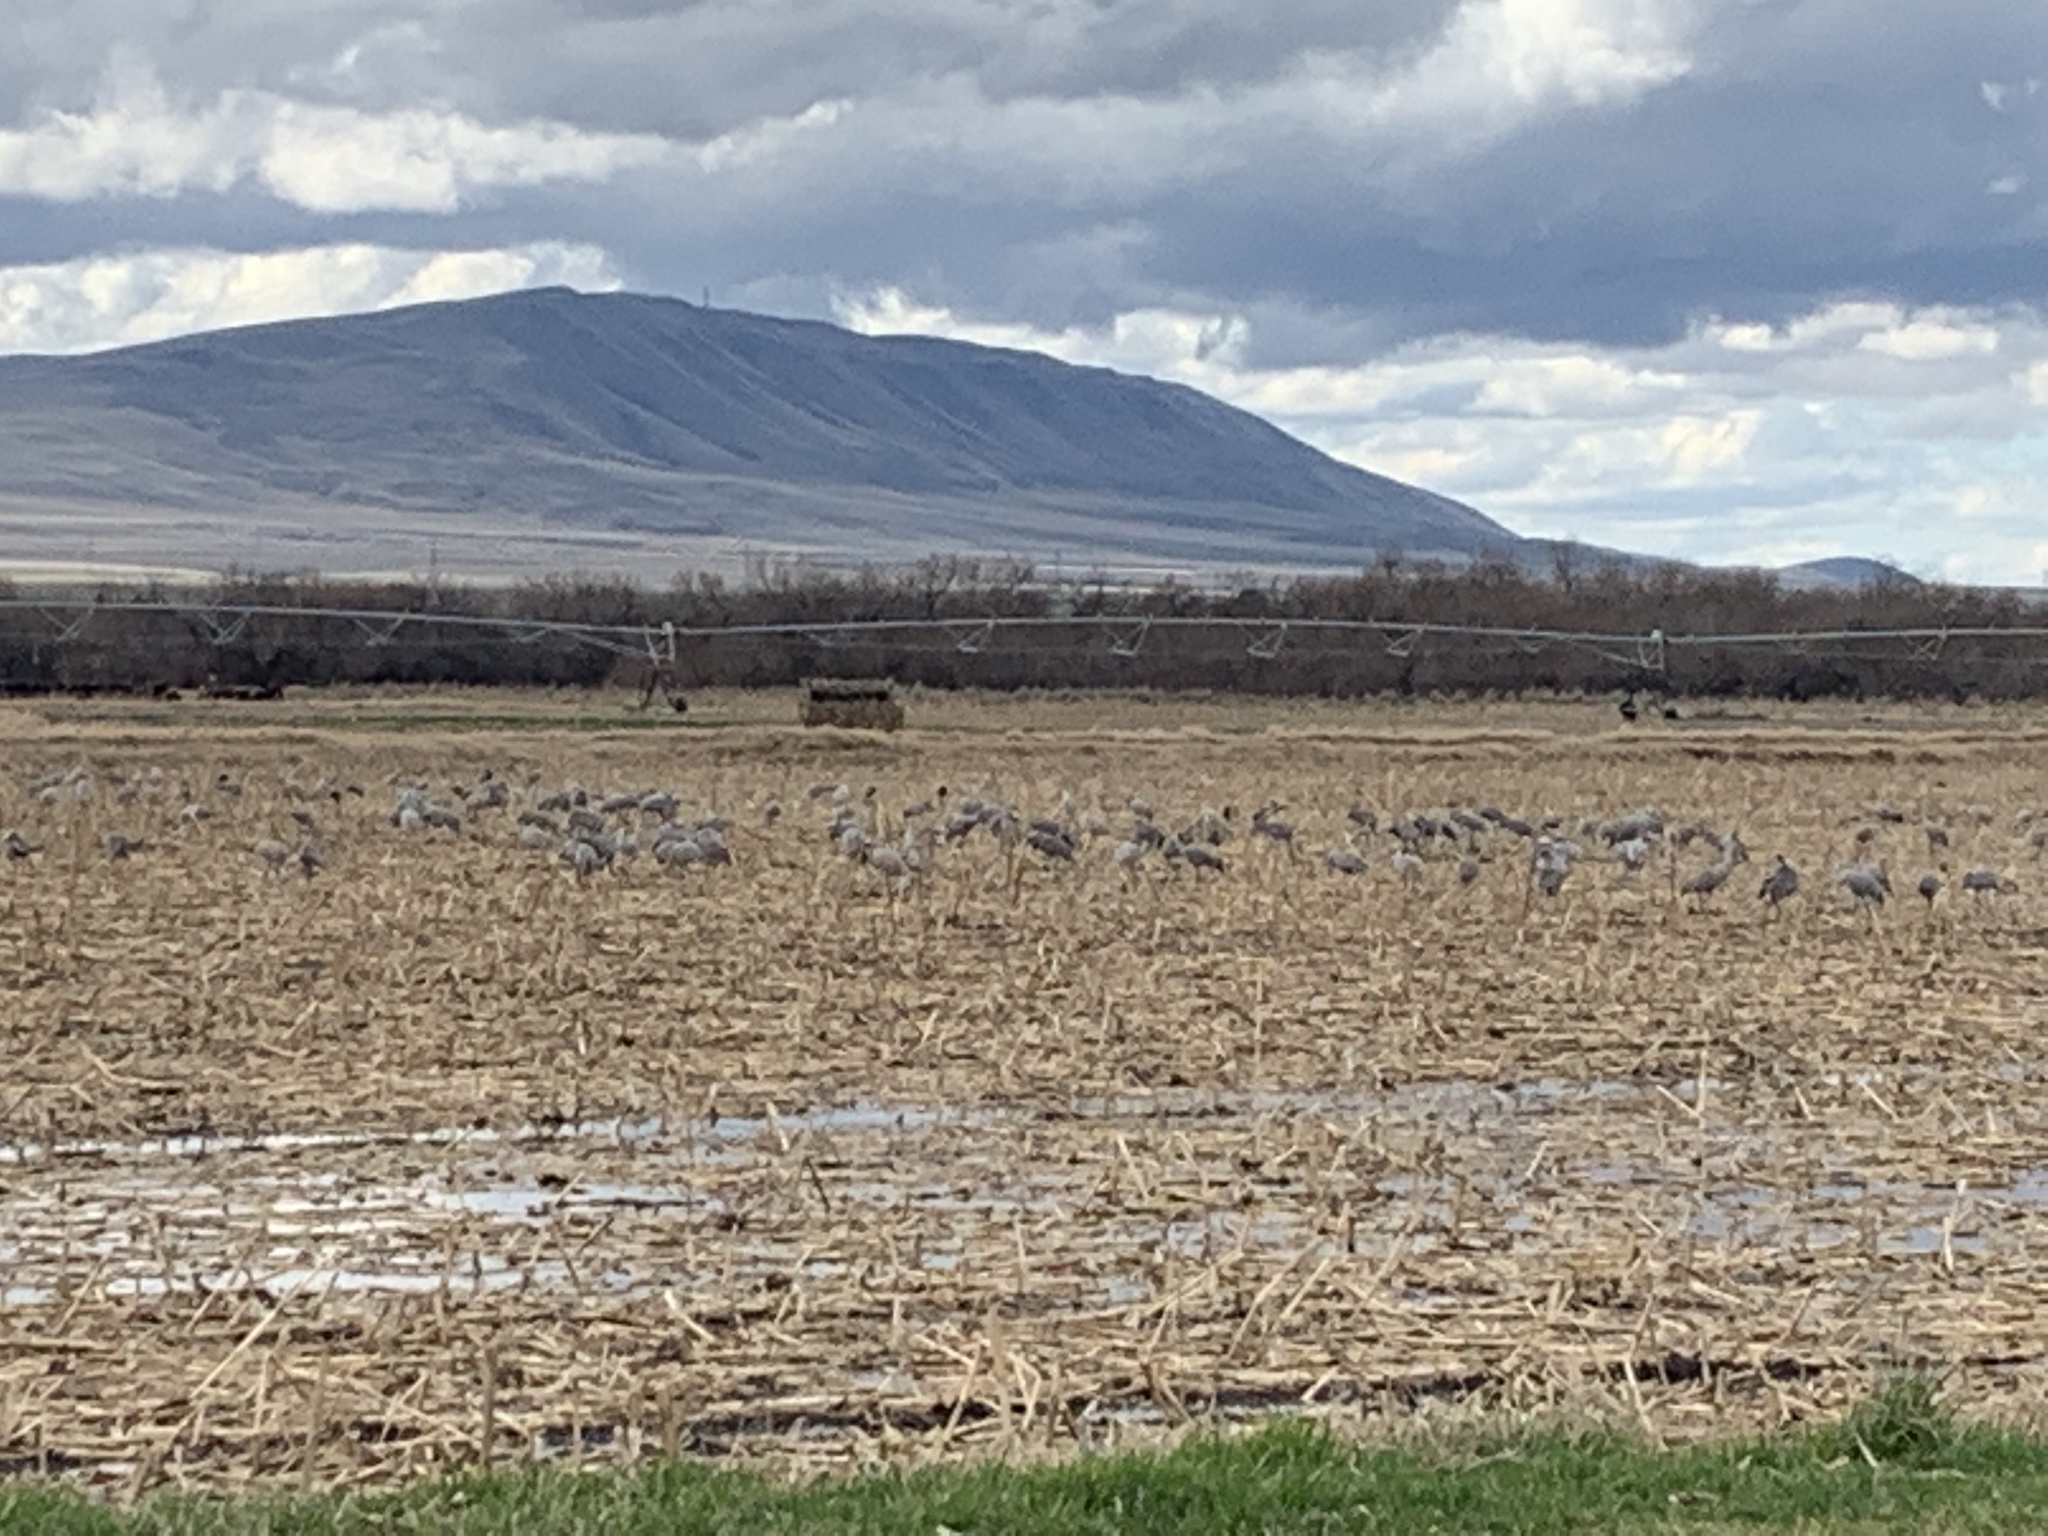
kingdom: Animalia
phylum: Chordata
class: Aves
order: Gruiformes
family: Gruidae
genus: Grus
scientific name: Grus canadensis
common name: Sandhill crane
